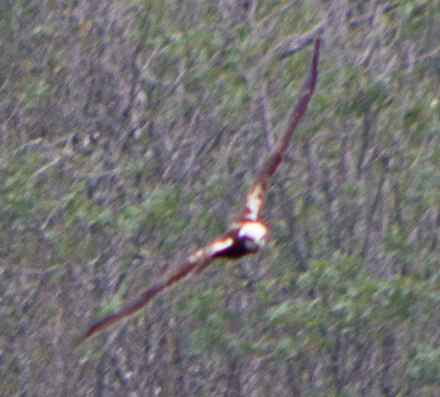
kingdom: Animalia
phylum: Chordata
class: Aves
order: Accipitriformes
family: Accipitridae
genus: Circus
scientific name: Circus aeruginosus
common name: Western marsh harrier
